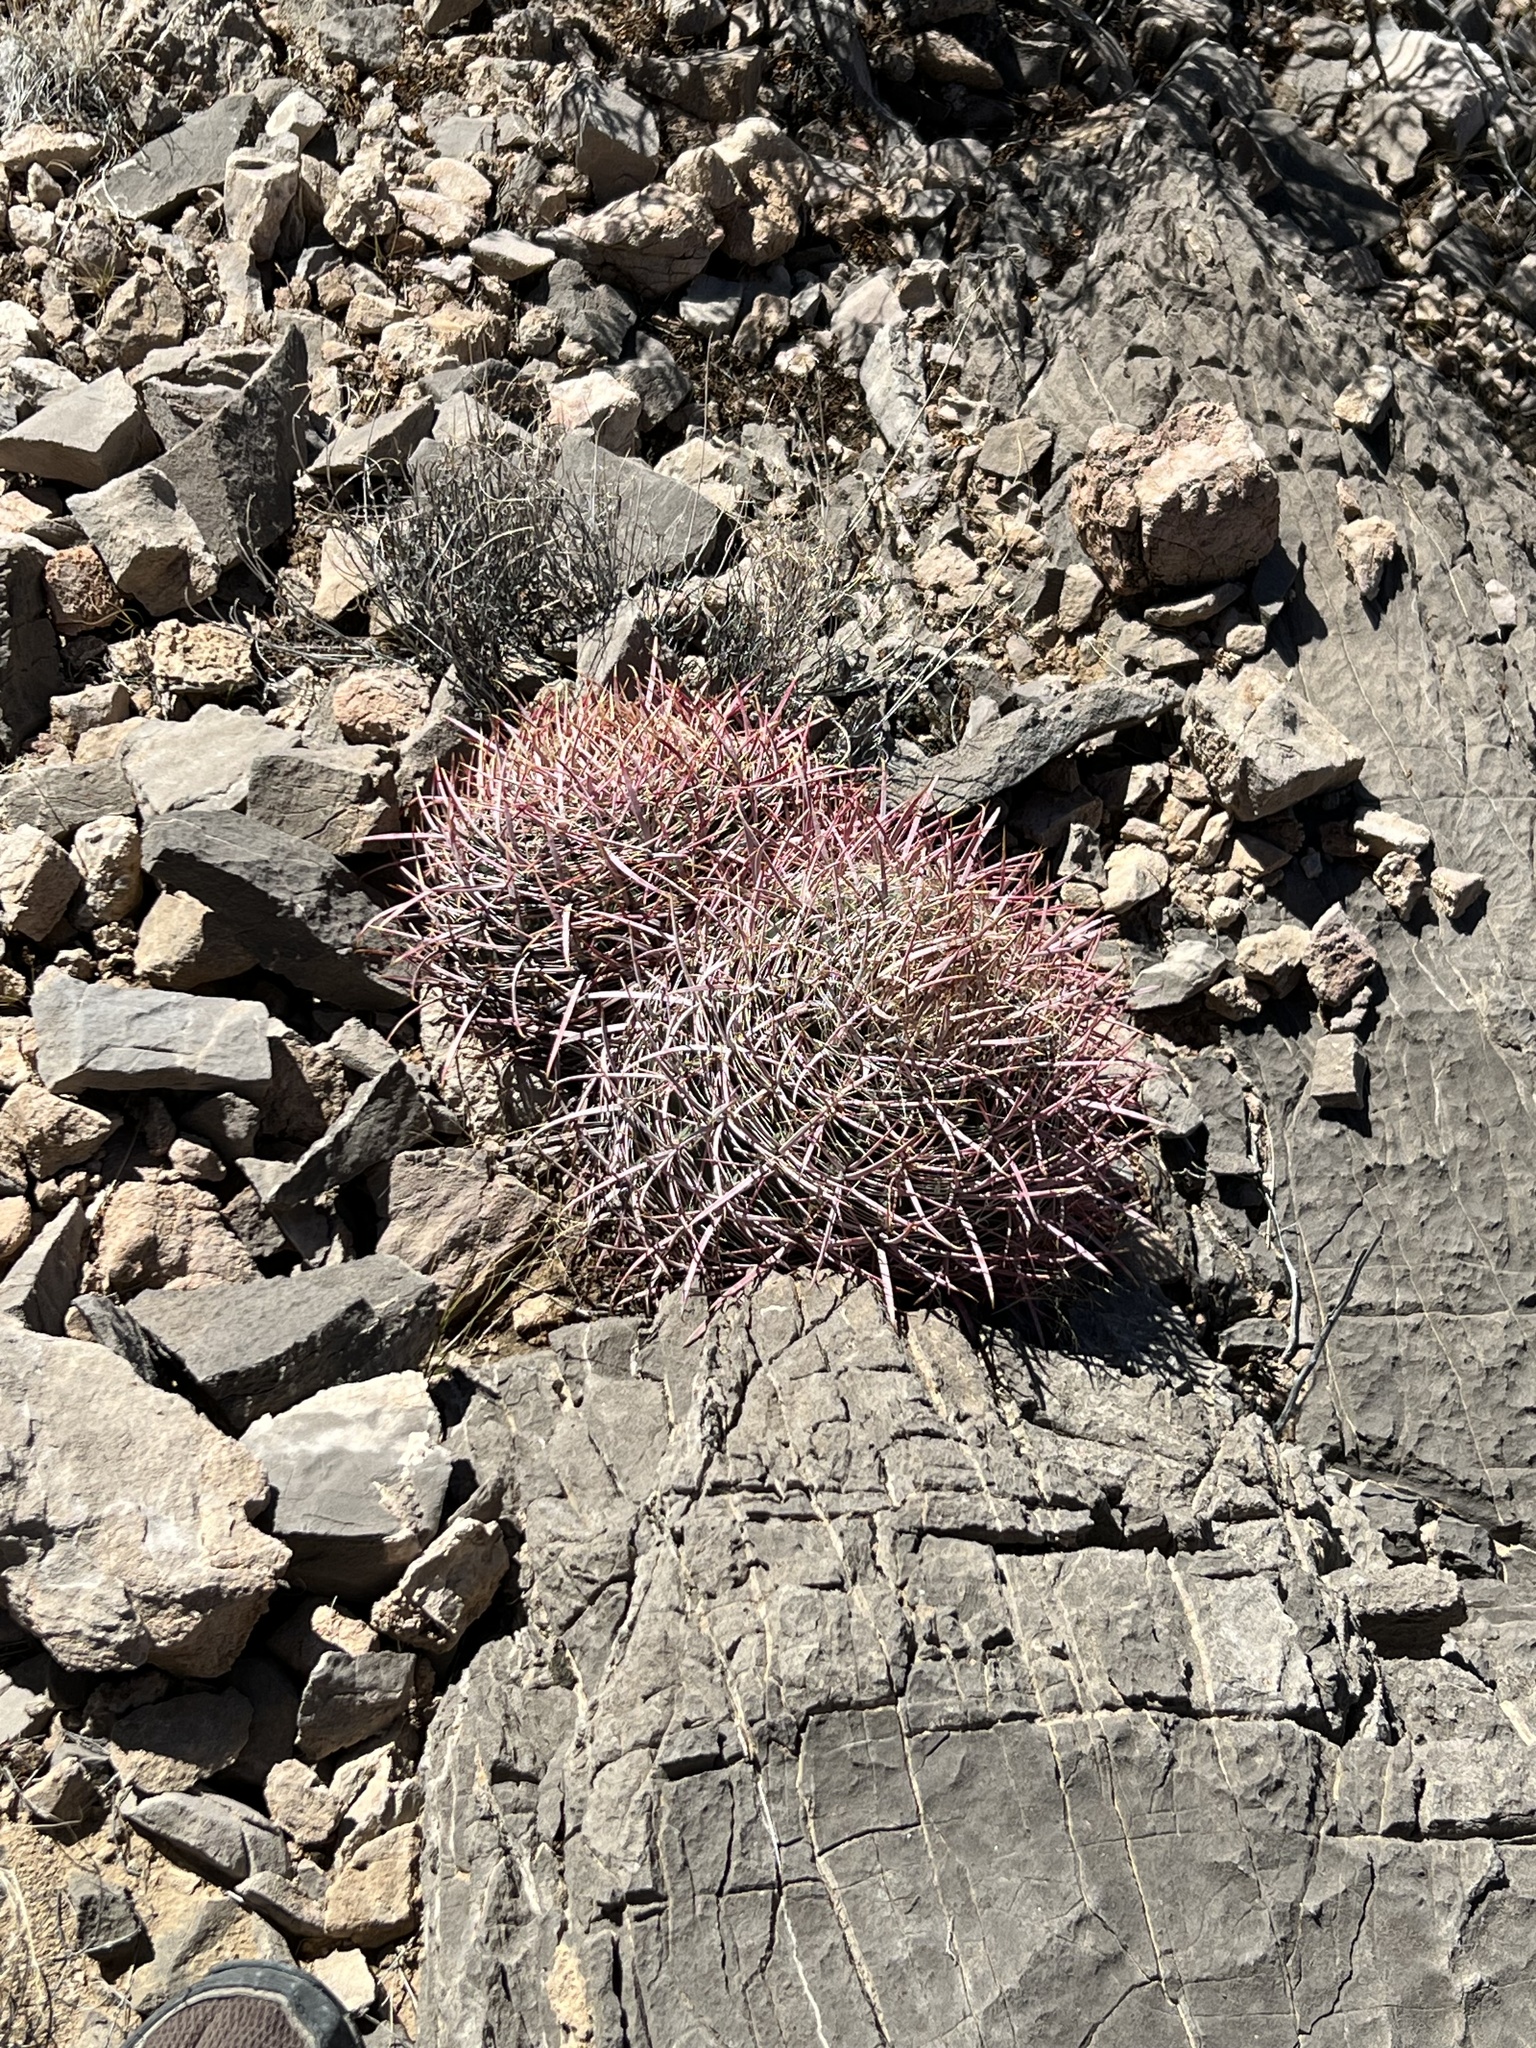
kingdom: Plantae
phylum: Tracheophyta
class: Magnoliopsida
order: Caryophyllales
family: Cactaceae
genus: Ferocactus
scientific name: Ferocactus cylindraceus
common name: California barrel cactus
